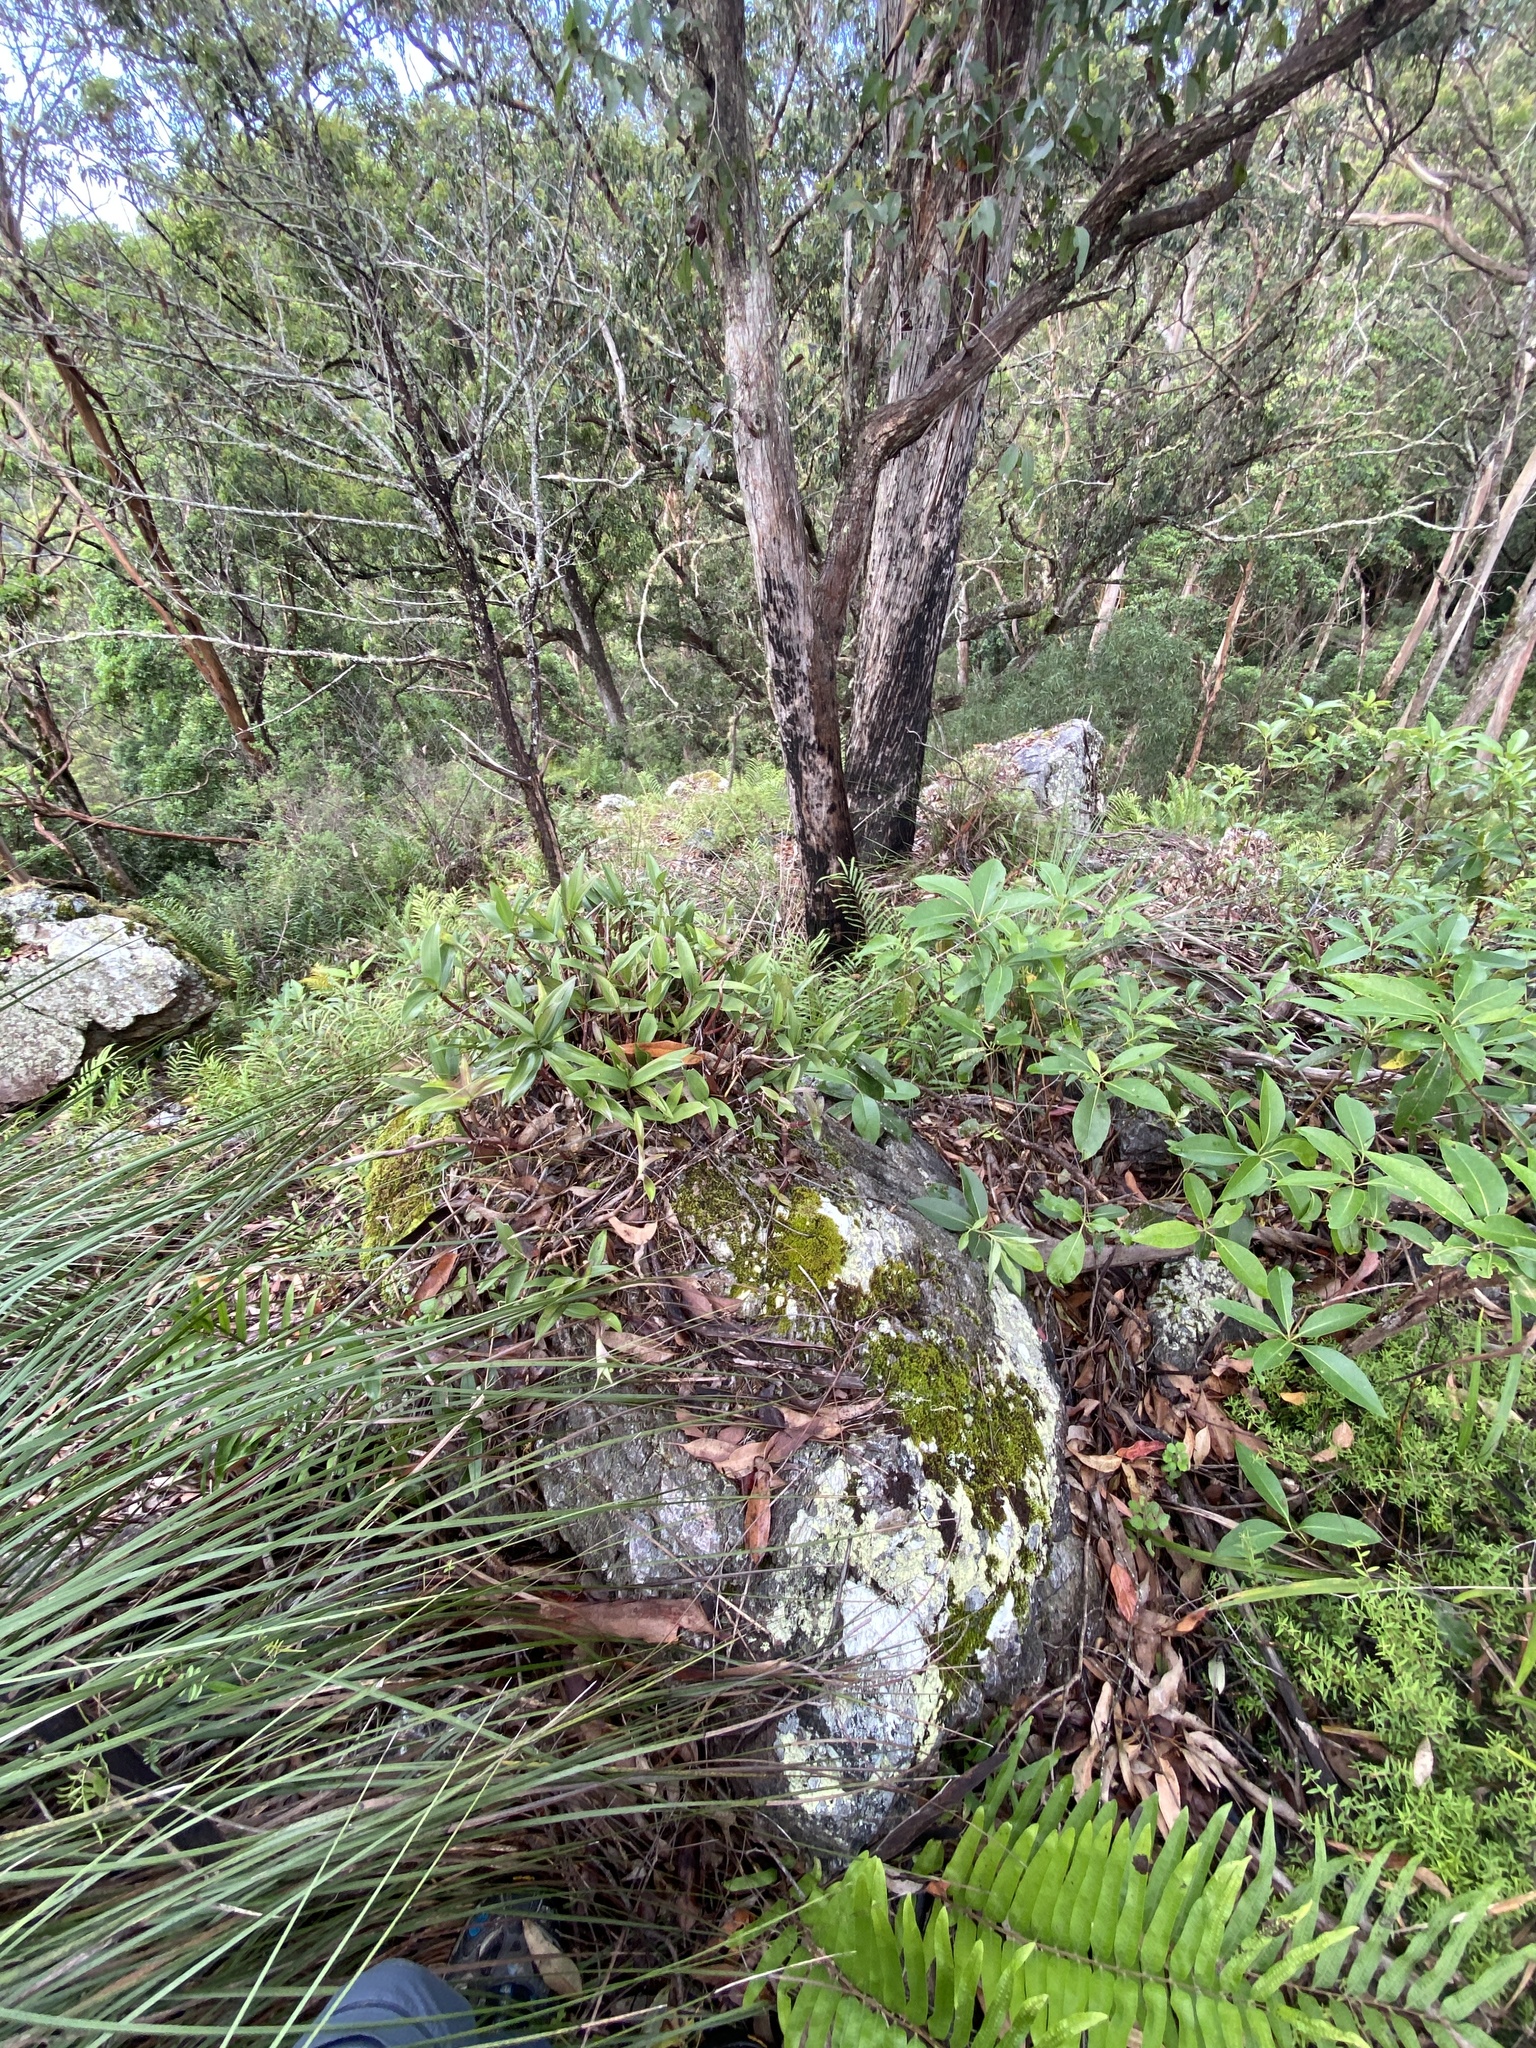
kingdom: Plantae
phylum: Tracheophyta
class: Liliopsida
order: Asparagales
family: Orchidaceae
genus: Dendrobium
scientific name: Dendrobium kingianum
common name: Pink rock orchid
